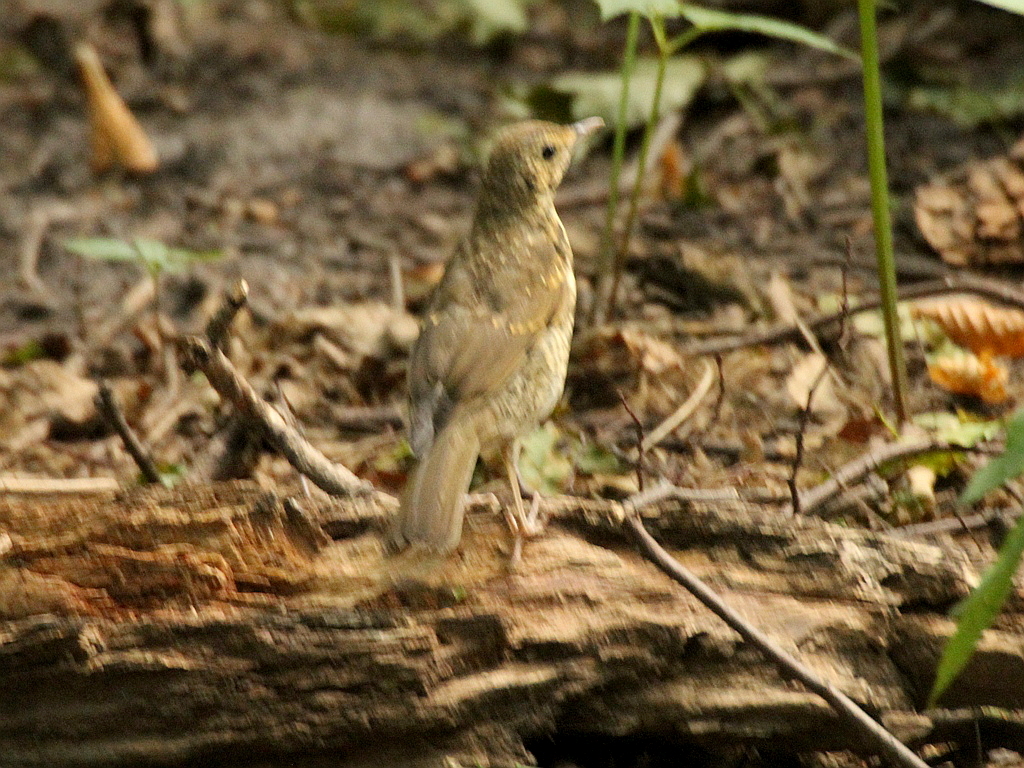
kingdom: Animalia
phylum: Chordata
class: Aves
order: Passeriformes
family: Turdidae
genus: Turdus
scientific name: Turdus philomelos
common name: Song thrush
